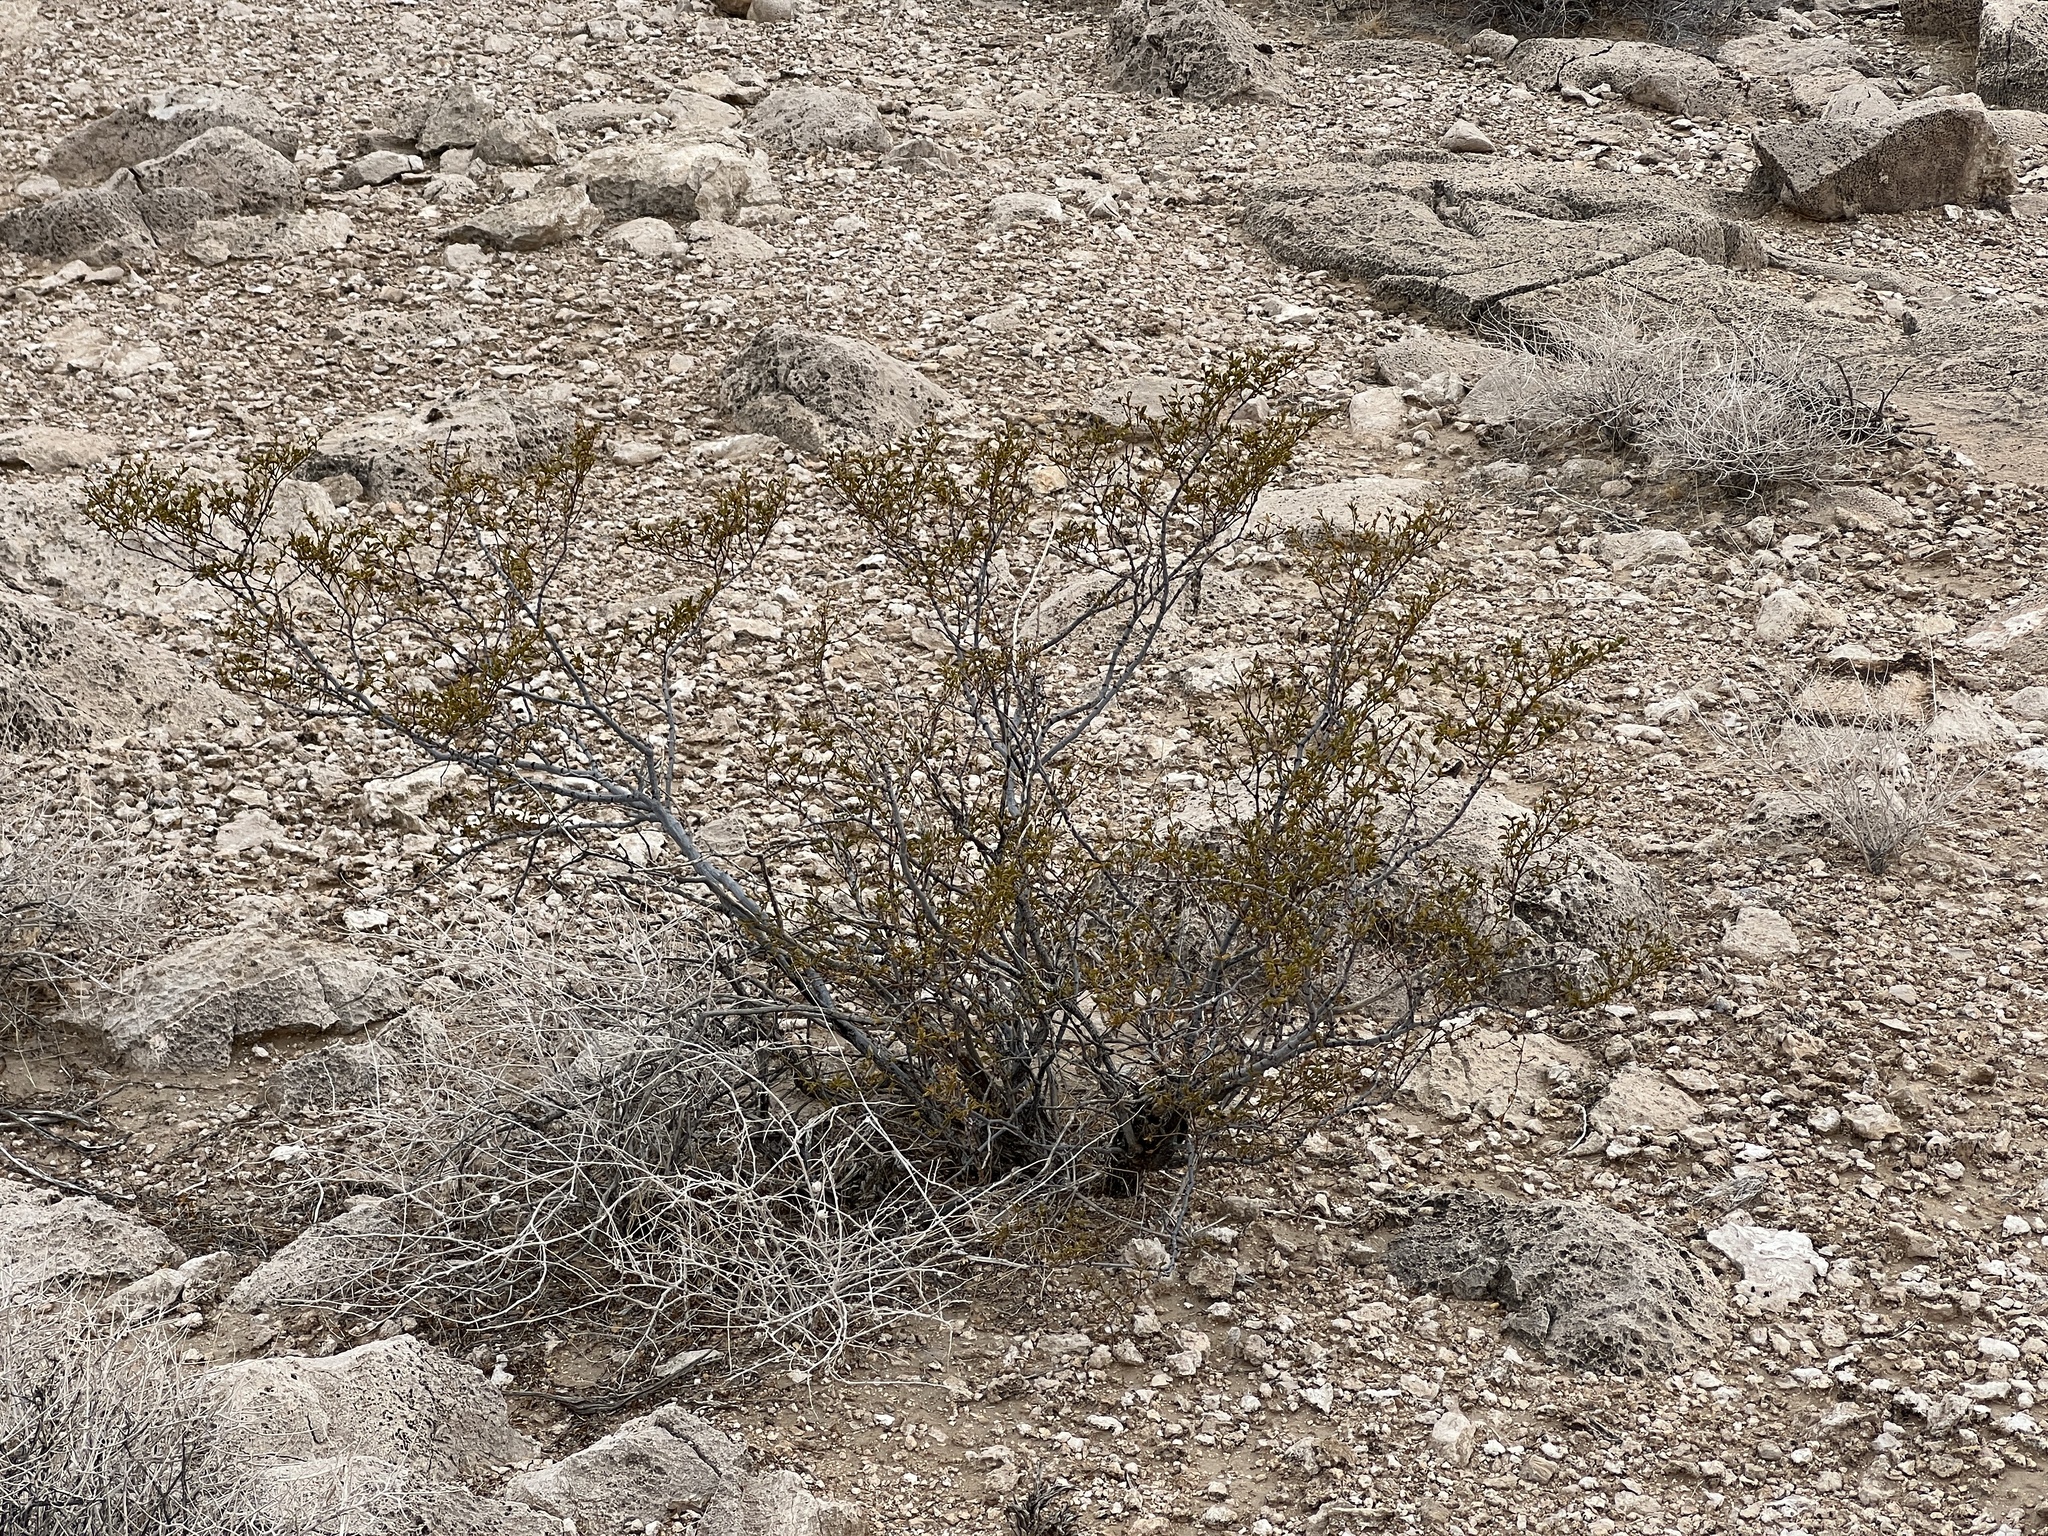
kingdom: Plantae
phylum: Tracheophyta
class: Magnoliopsida
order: Zygophyllales
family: Zygophyllaceae
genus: Larrea
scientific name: Larrea tridentata
